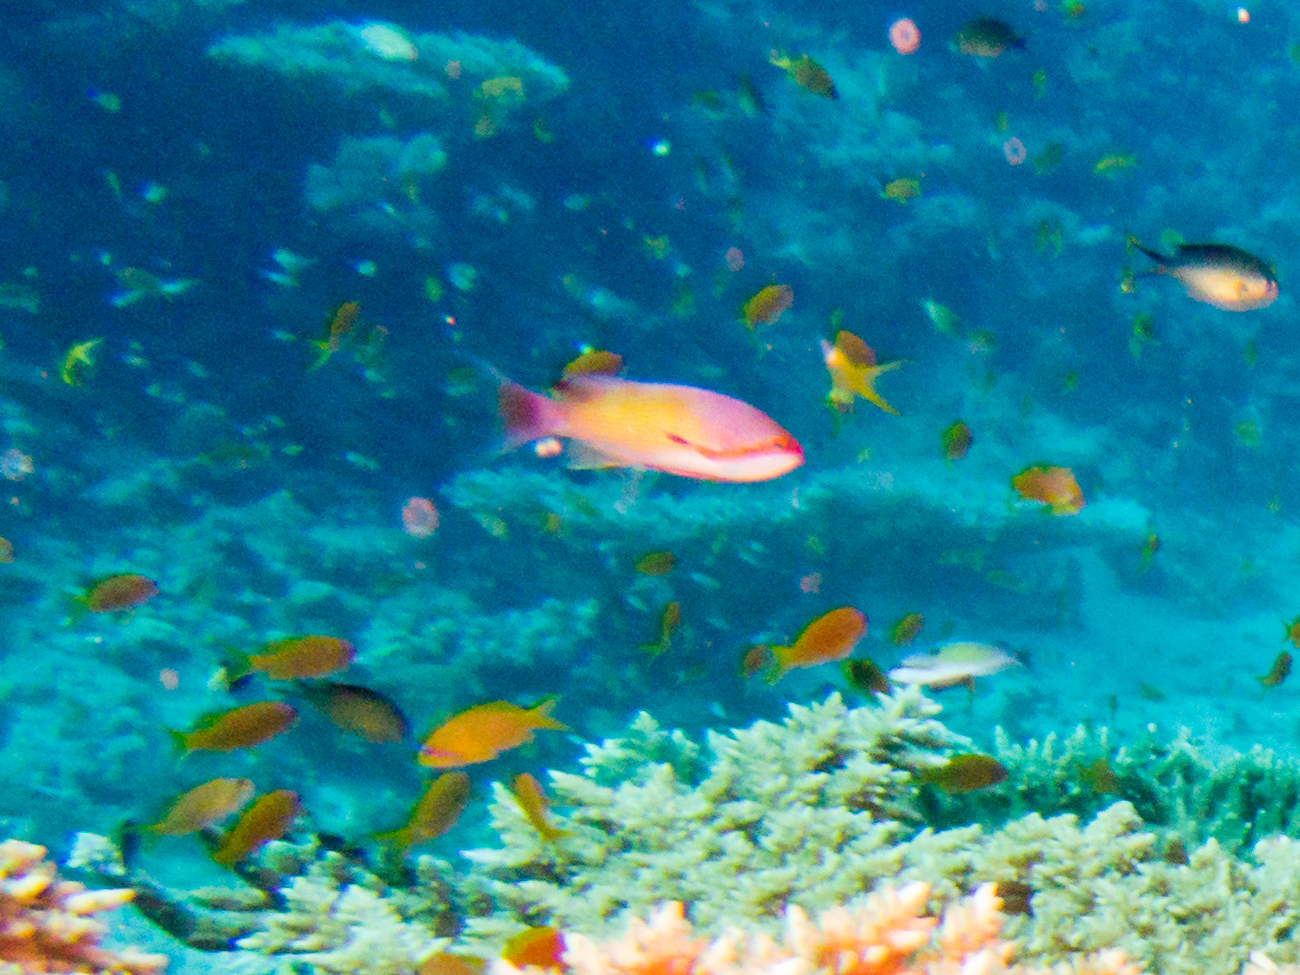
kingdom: Animalia
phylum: Chordata
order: Perciformes
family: Serranidae
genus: Pseudanthias
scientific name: Pseudanthias squamipinnis
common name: Scalefin anthias
